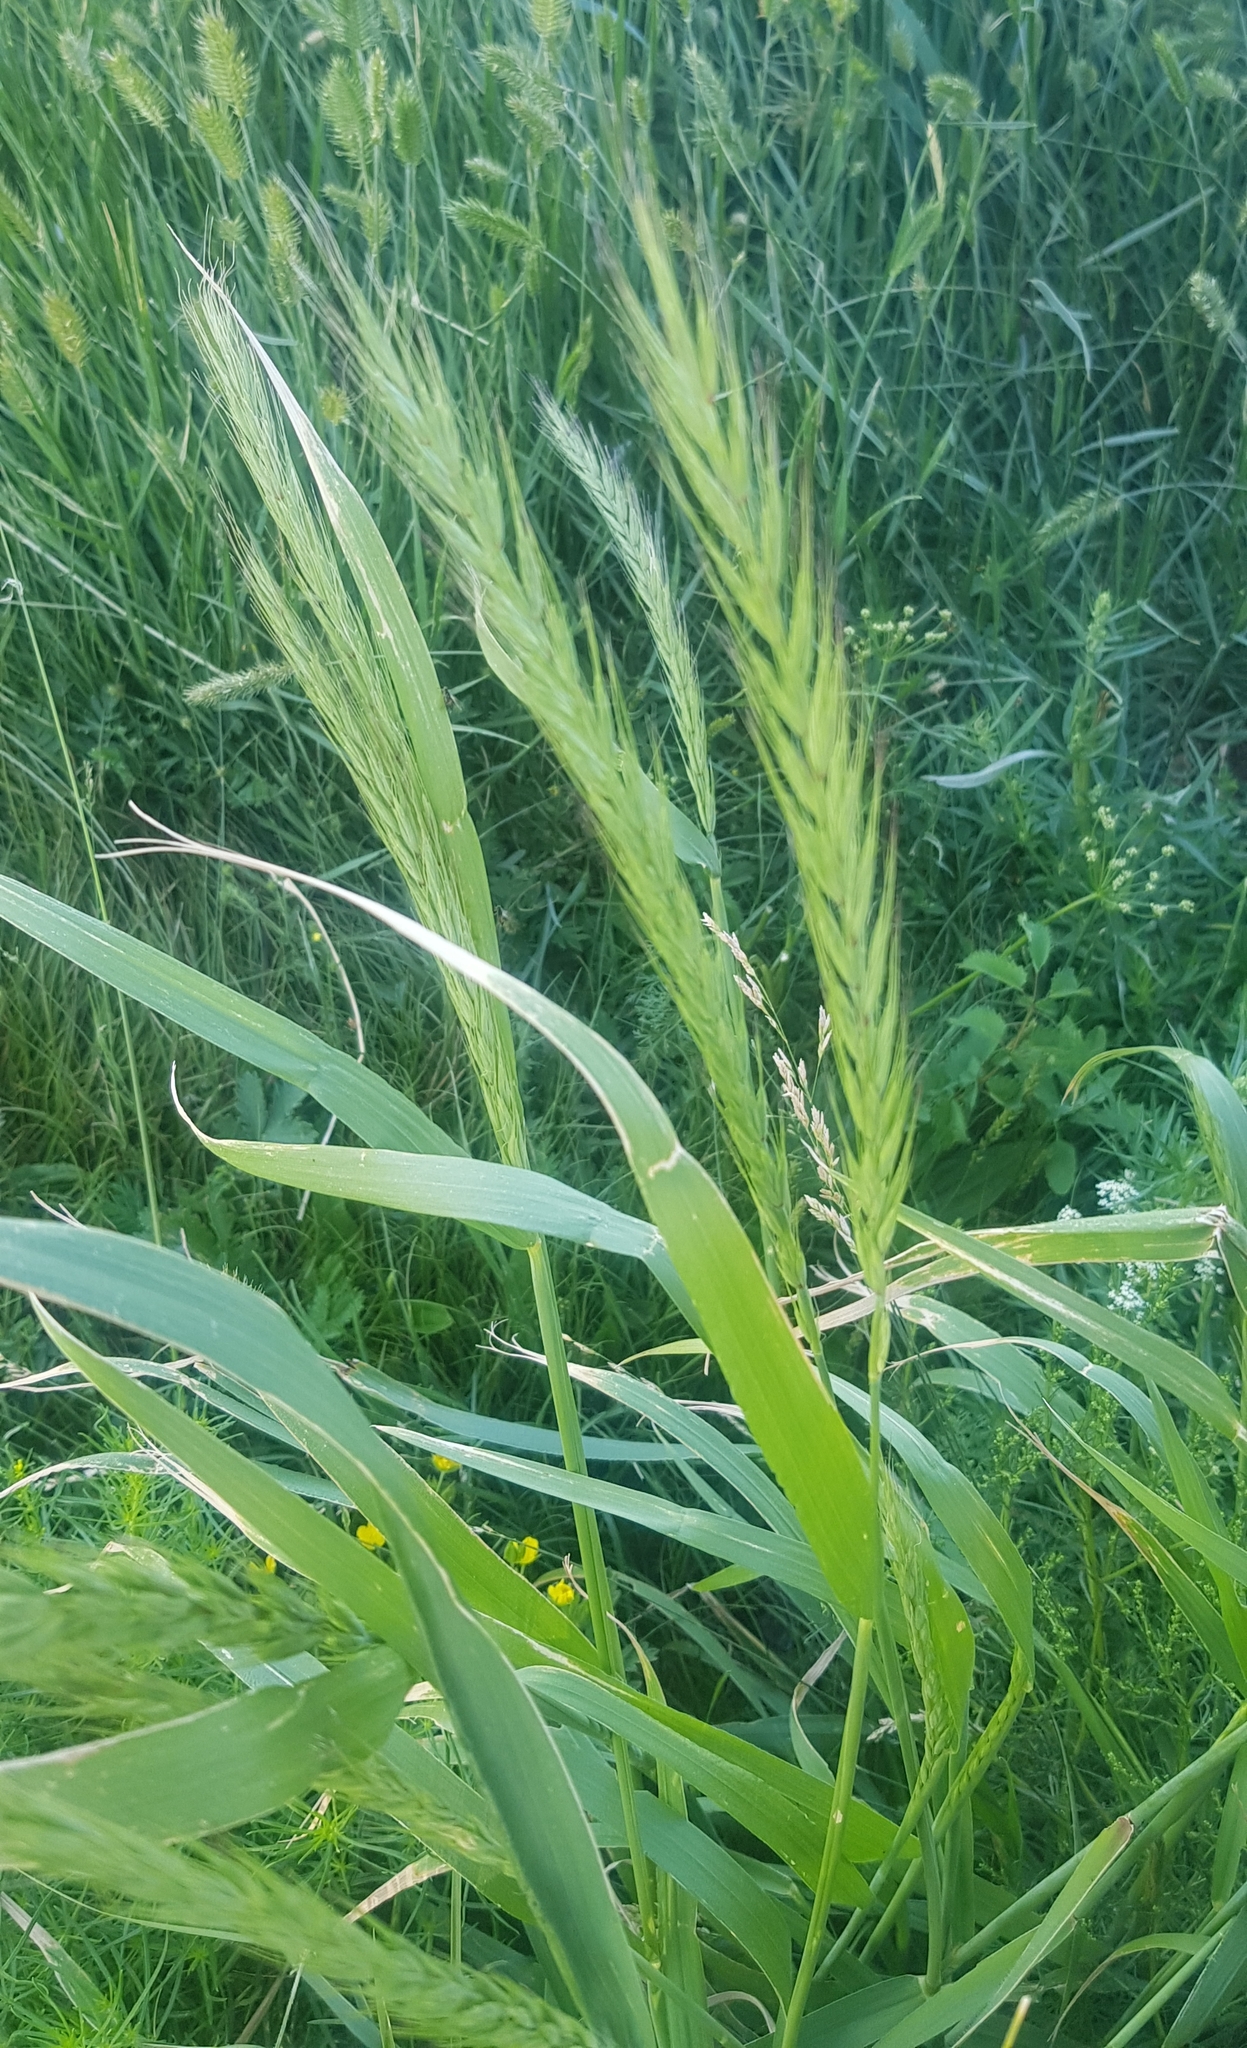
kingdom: Plantae
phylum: Tracheophyta
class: Liliopsida
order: Poales
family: Poaceae
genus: Hordeum
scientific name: Hordeum vulgare
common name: Common barley
